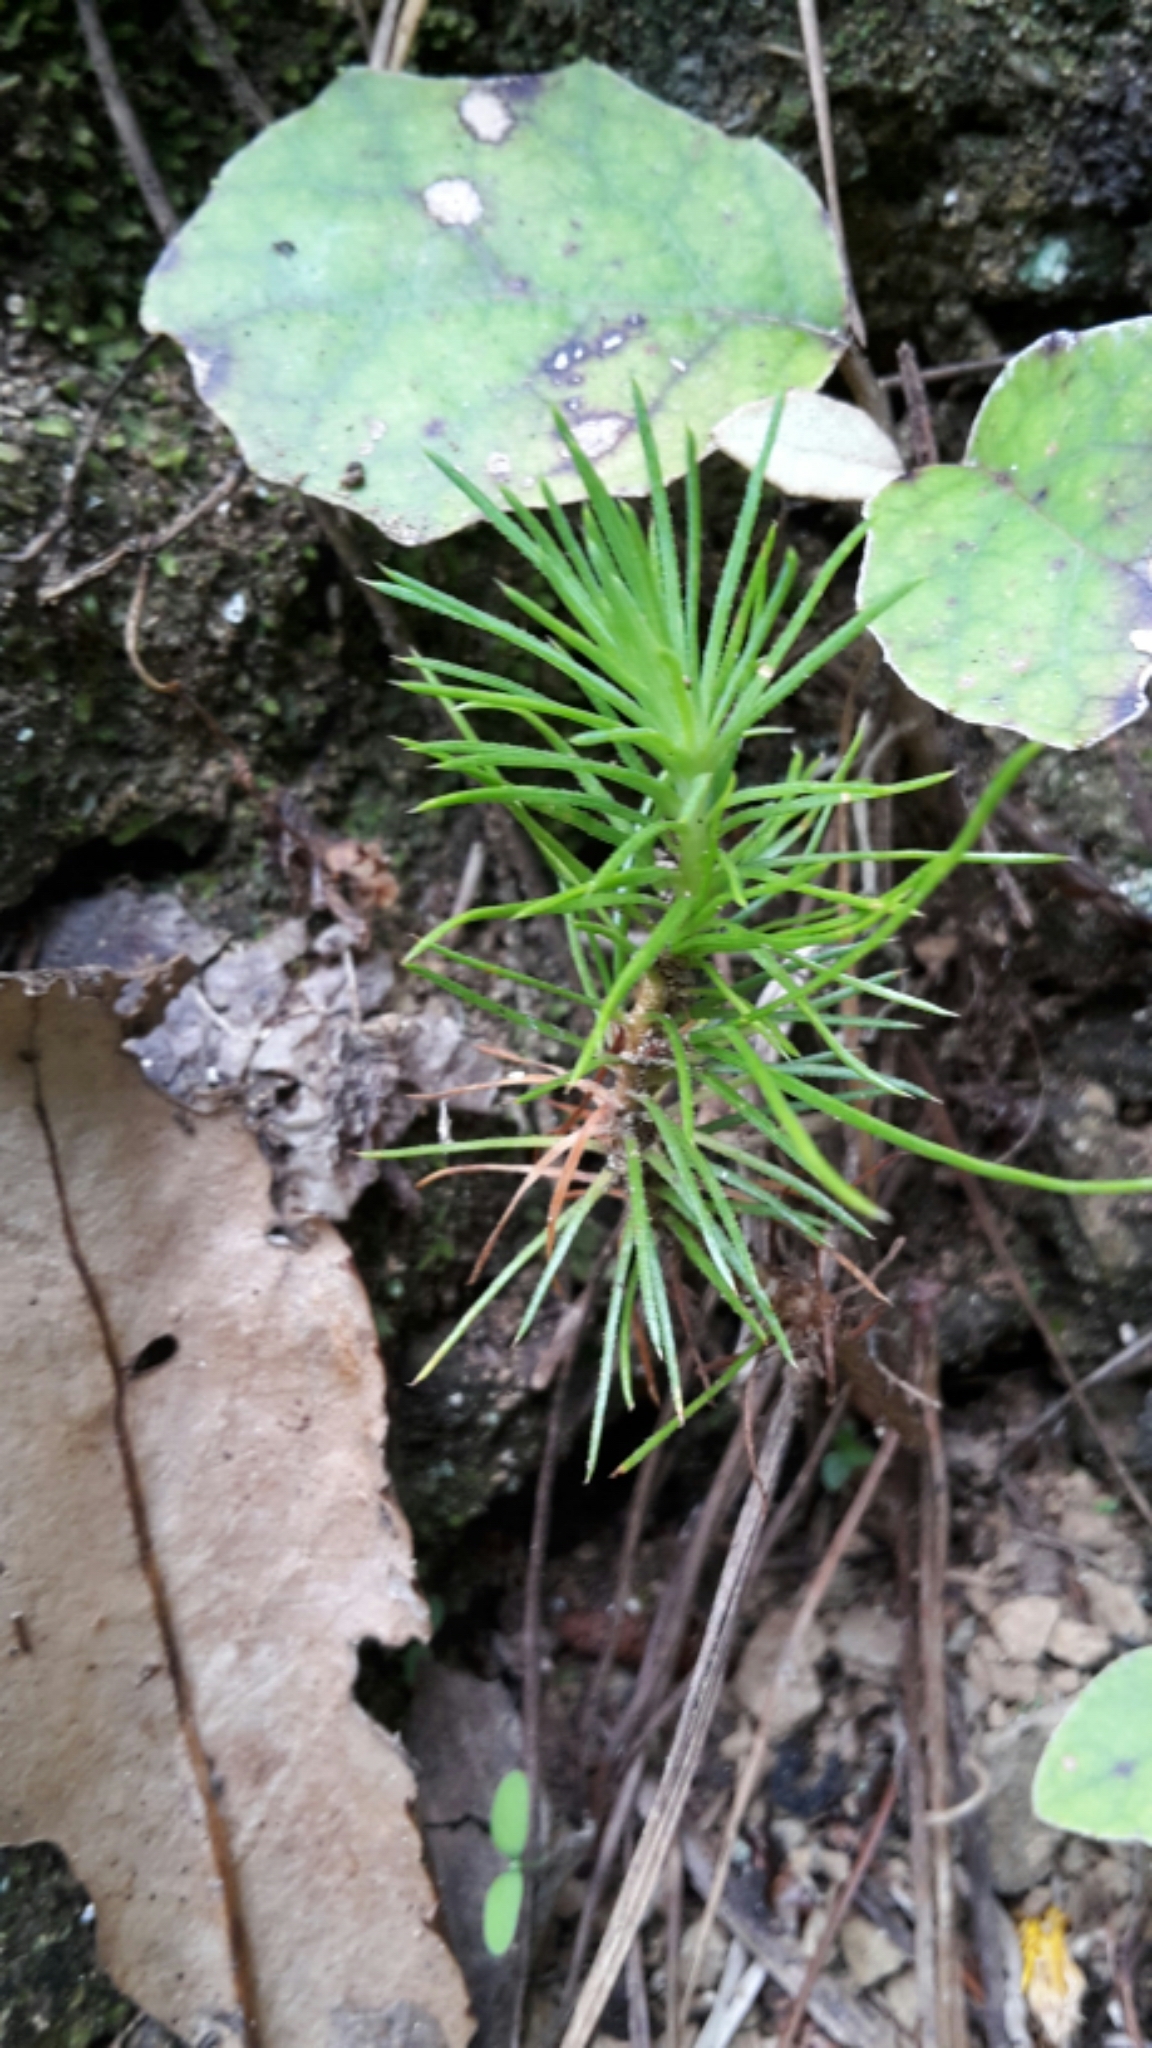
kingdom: Plantae
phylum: Tracheophyta
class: Pinopsida
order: Pinales
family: Pinaceae
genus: Pinus
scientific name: Pinus radiata
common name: Monterey pine
